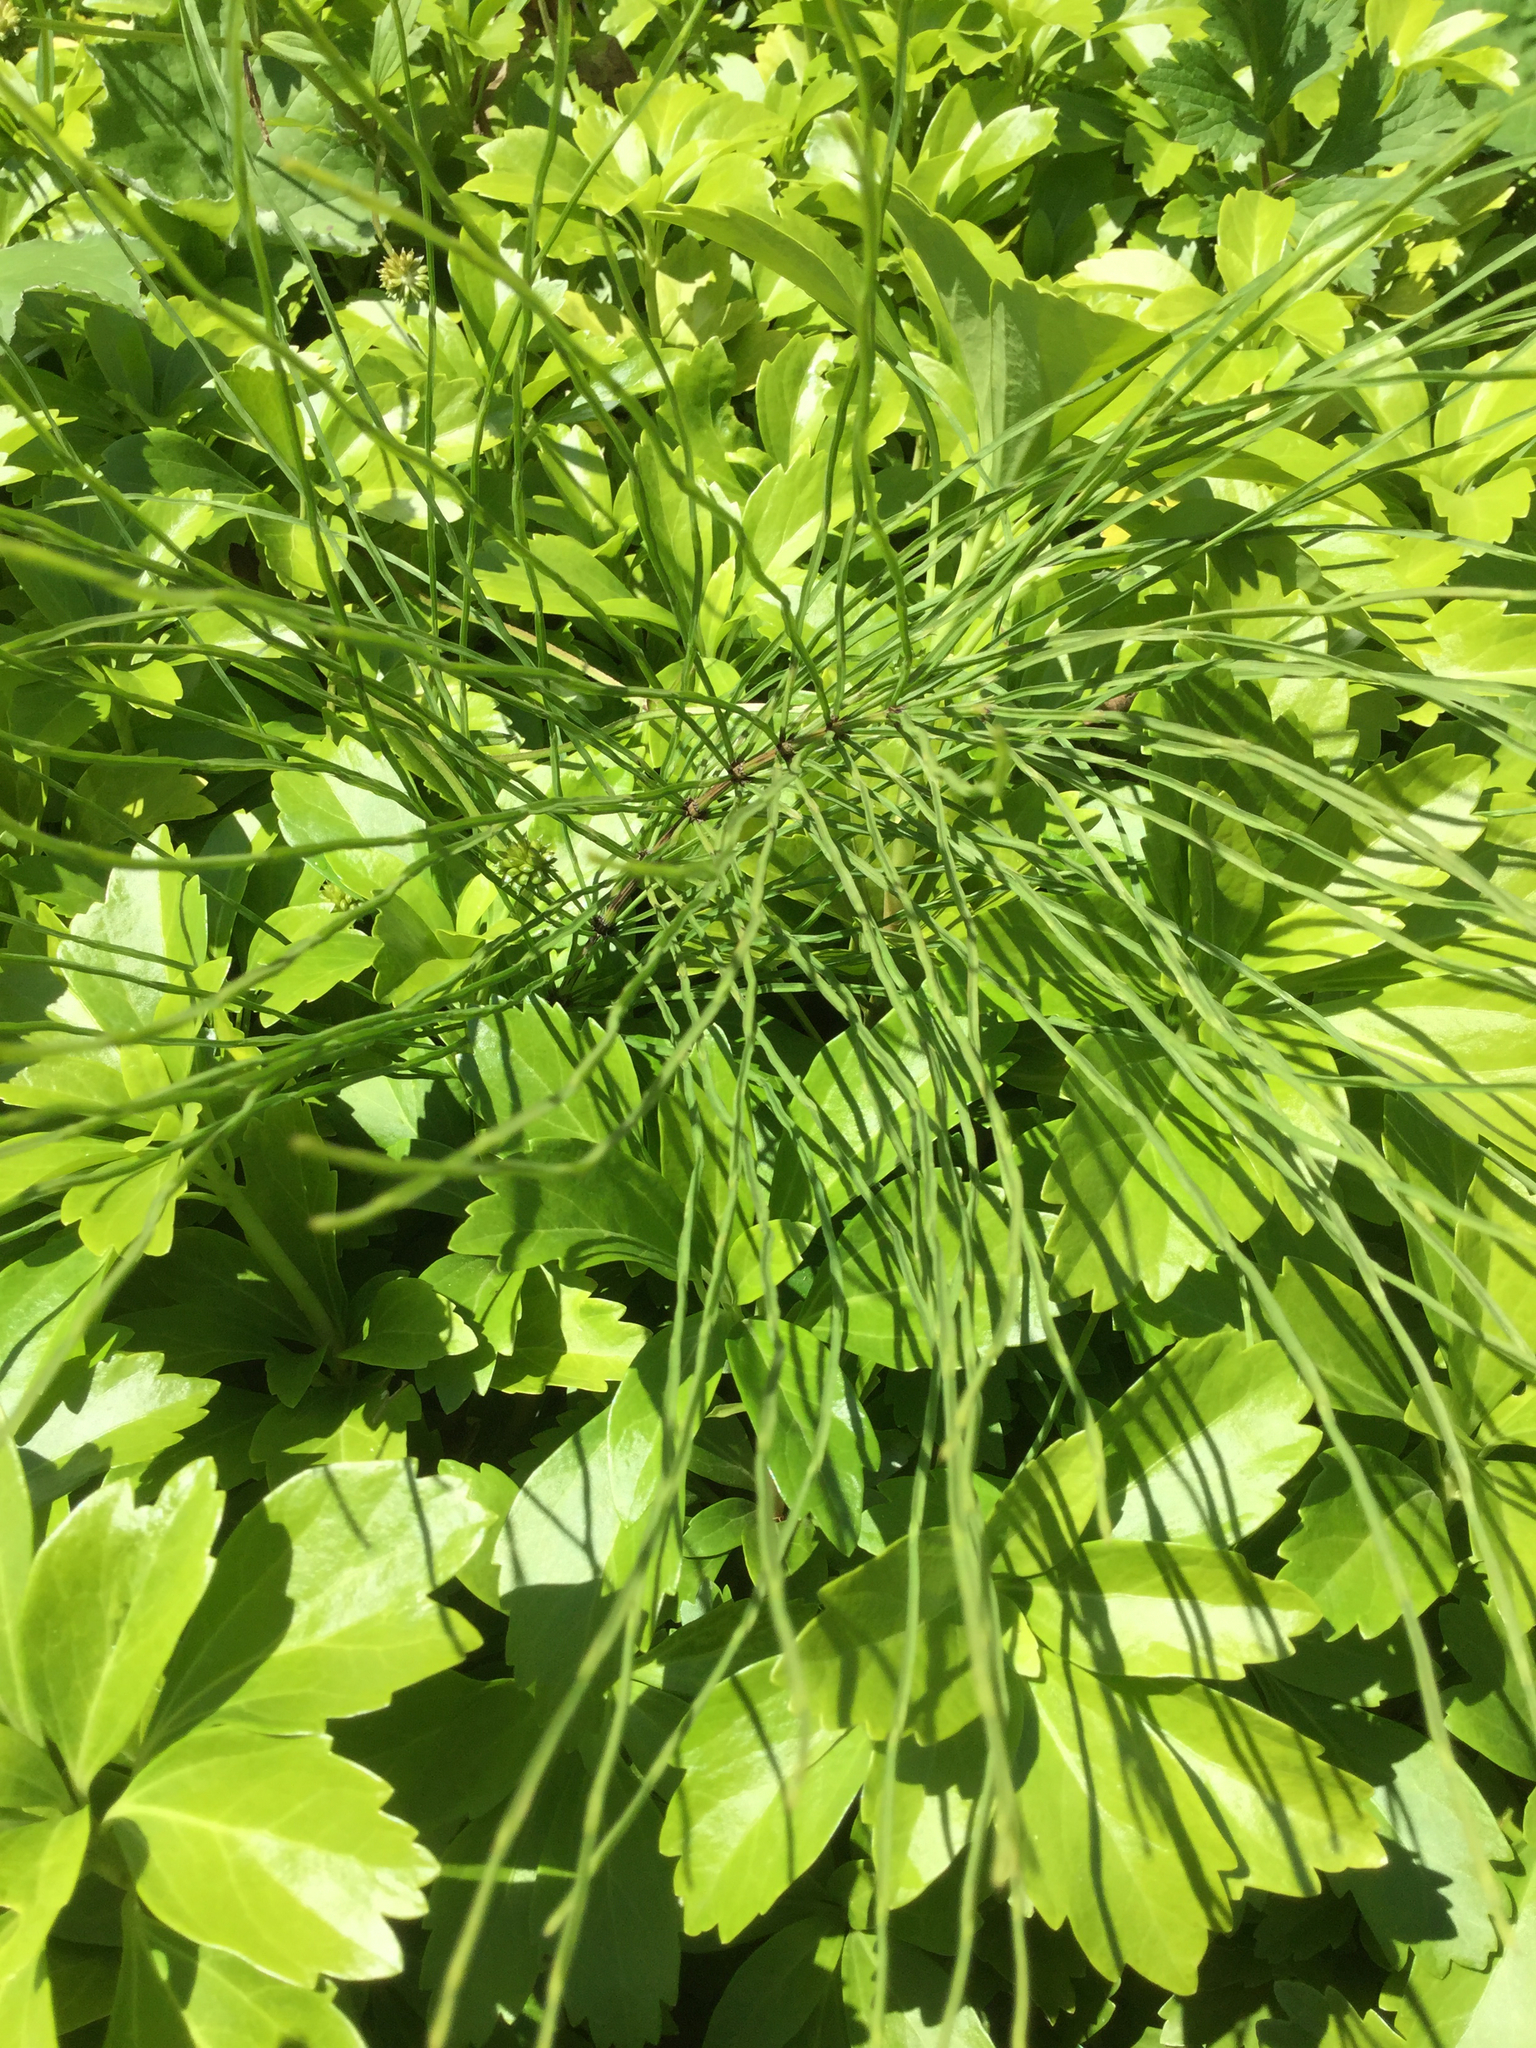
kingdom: Plantae
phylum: Tracheophyta
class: Polypodiopsida
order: Equisetales
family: Equisetaceae
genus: Equisetum
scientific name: Equisetum arvense
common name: Field horsetail
